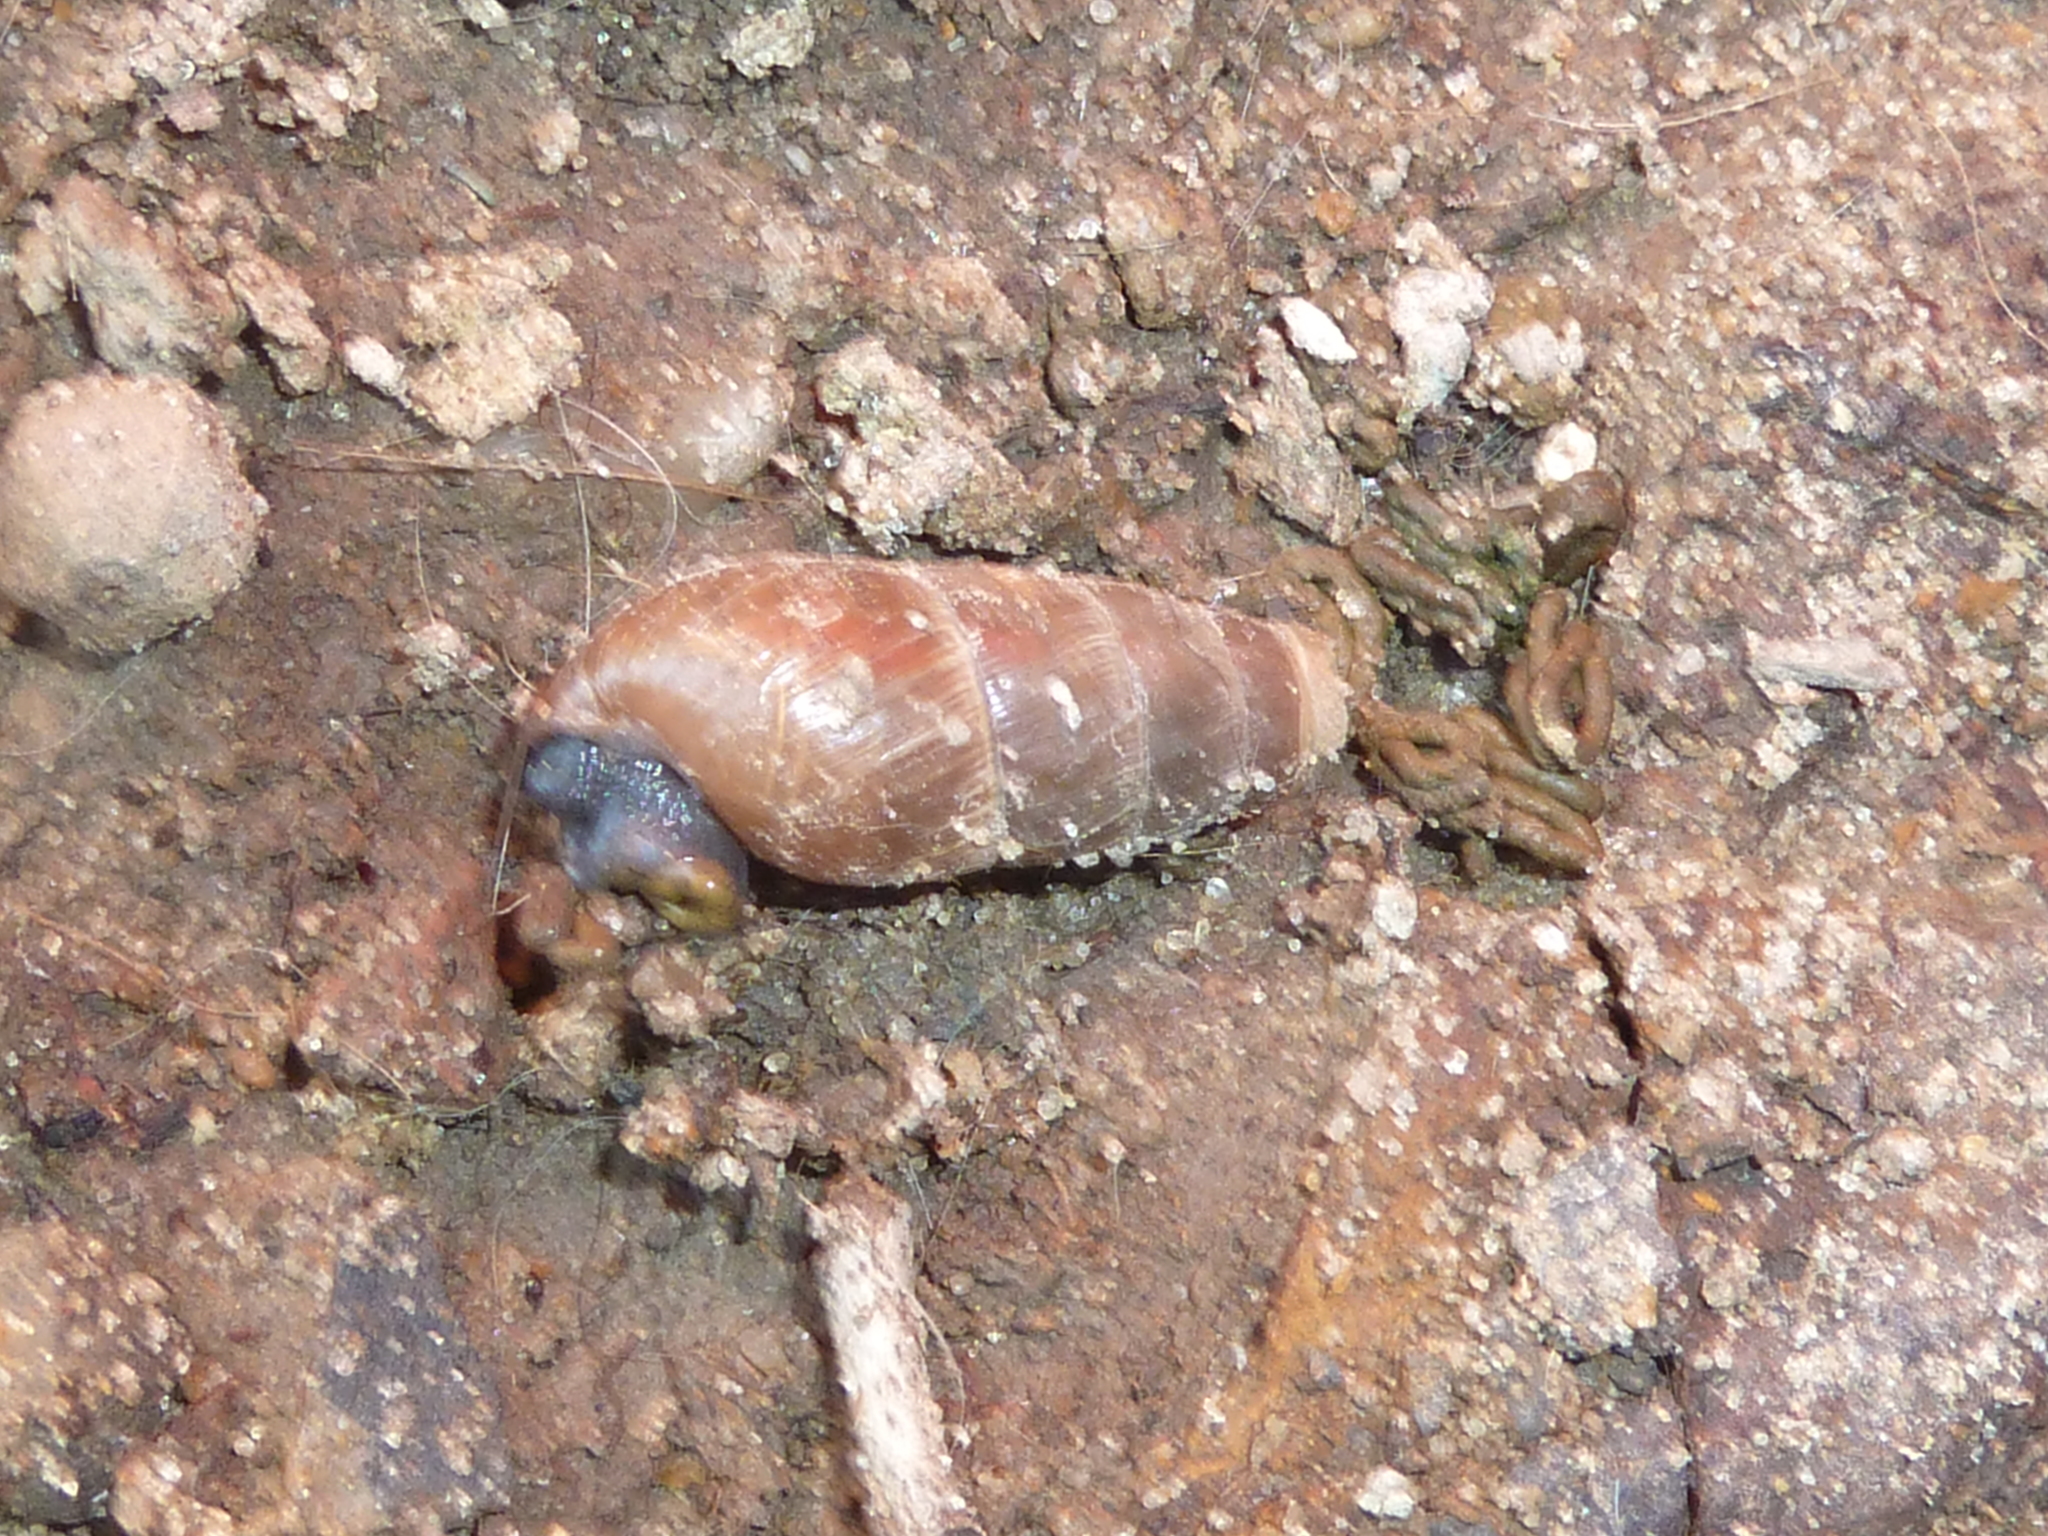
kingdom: Animalia
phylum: Mollusca
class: Gastropoda
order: Stylommatophora
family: Achatinidae
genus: Rumina
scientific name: Rumina decollata
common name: Decollate snail
